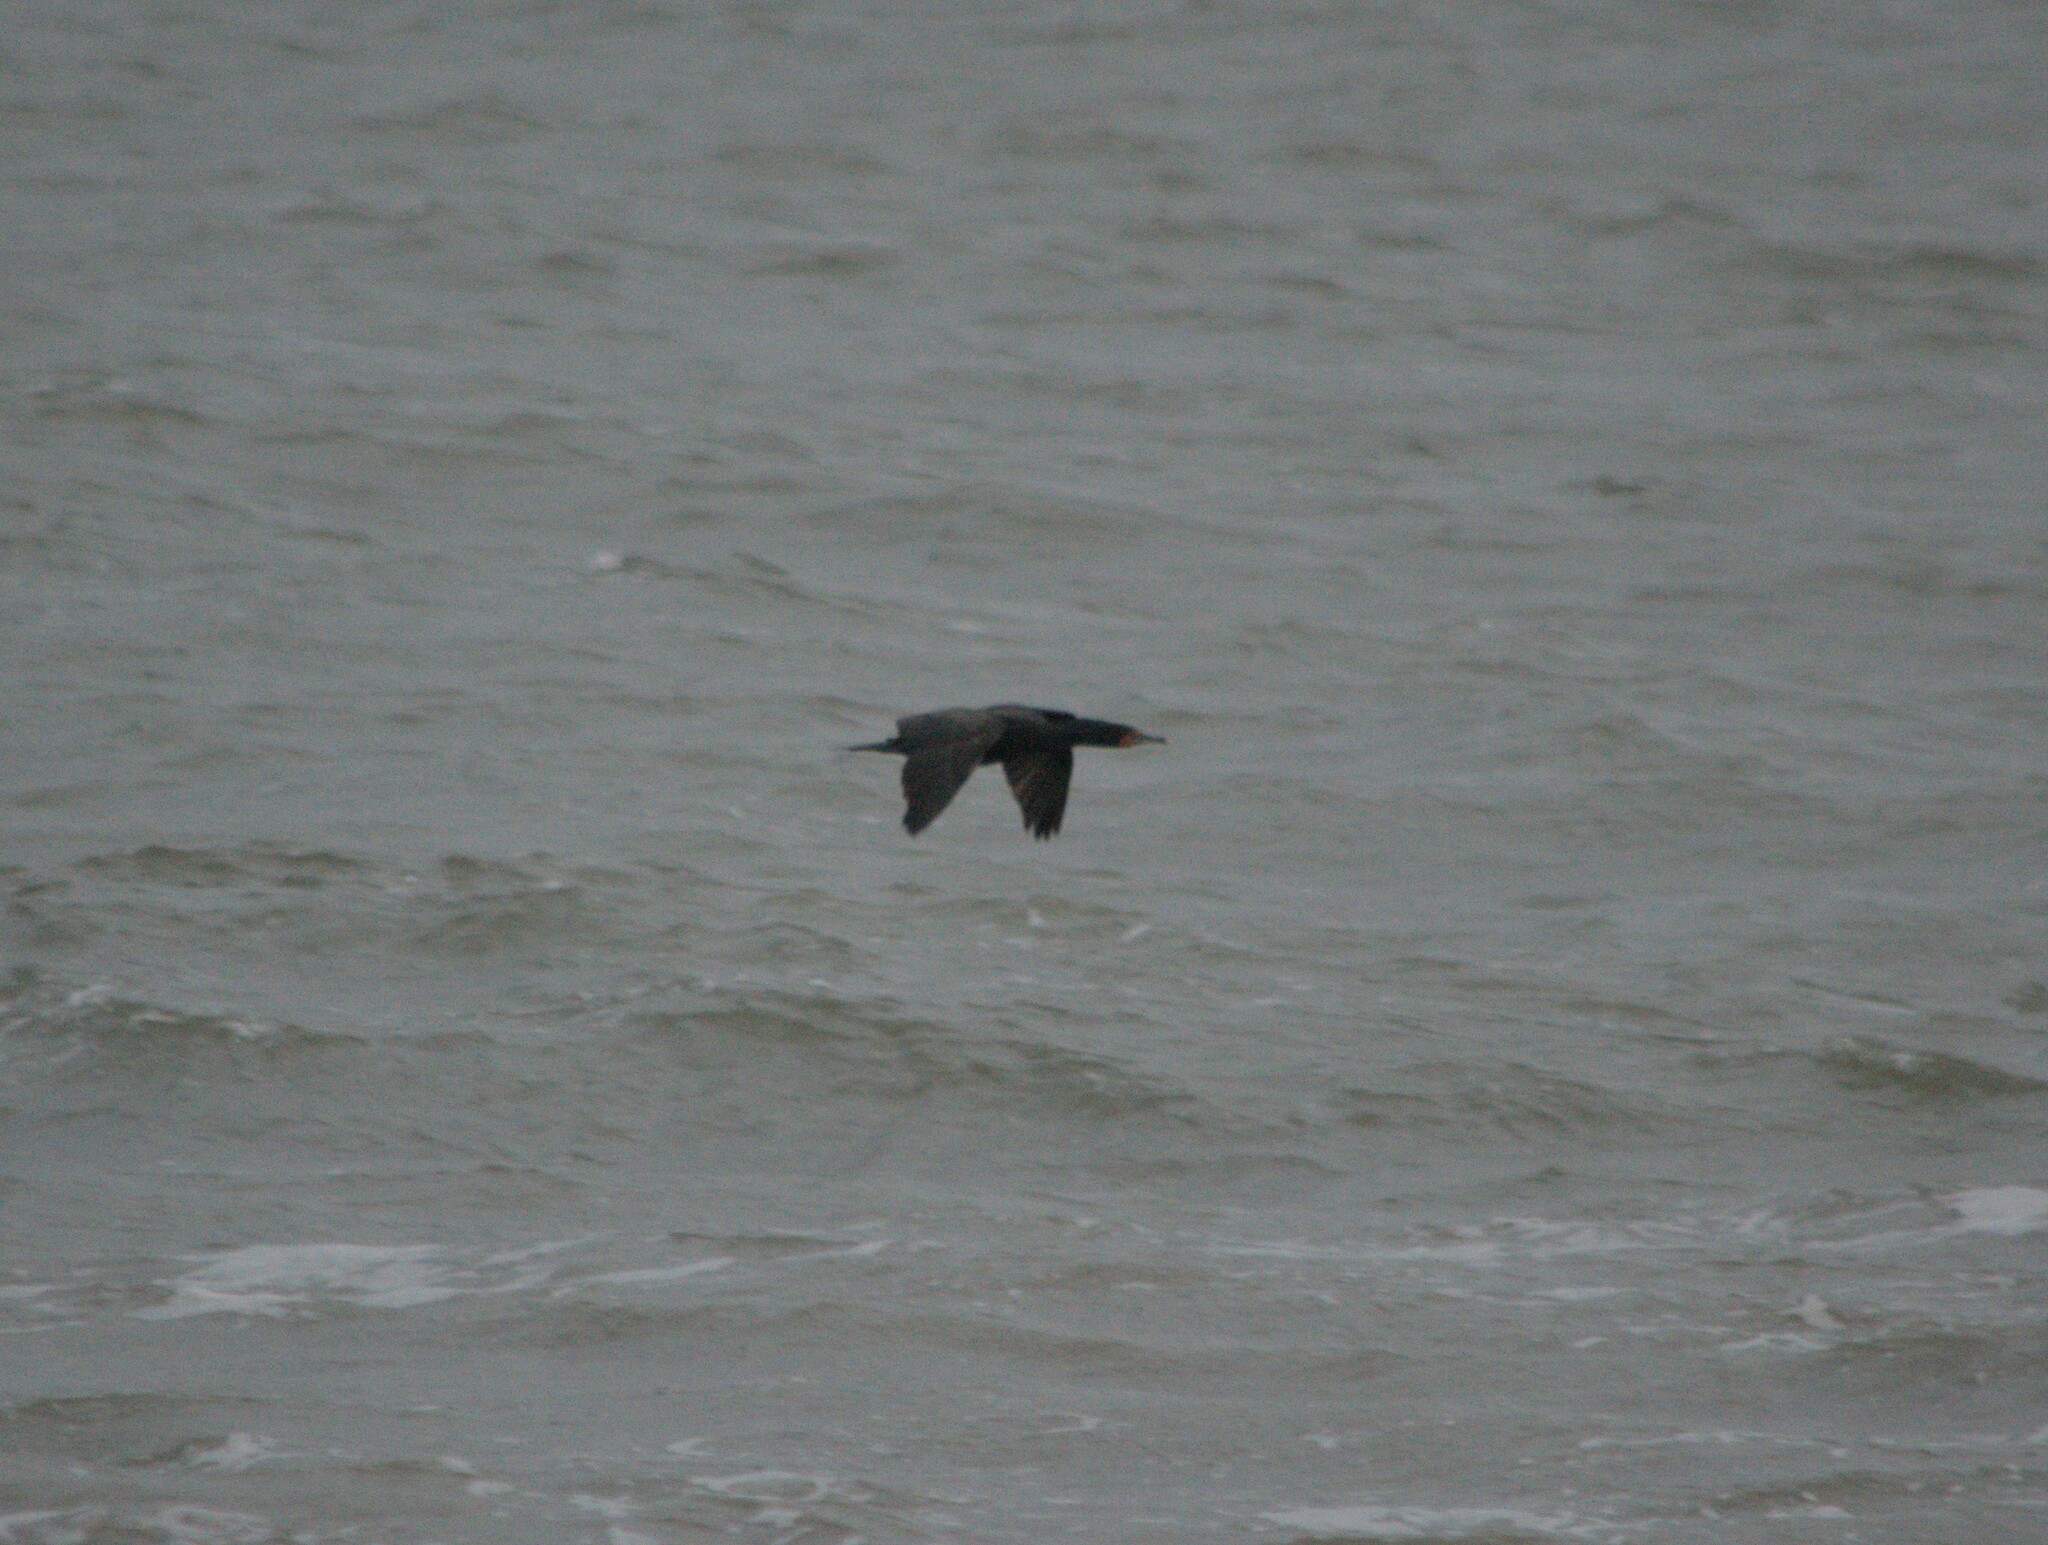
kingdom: Animalia
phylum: Chordata
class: Aves
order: Suliformes
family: Phalacrocoracidae
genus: Phalacrocorax
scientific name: Phalacrocorax auritus
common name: Double-crested cormorant
